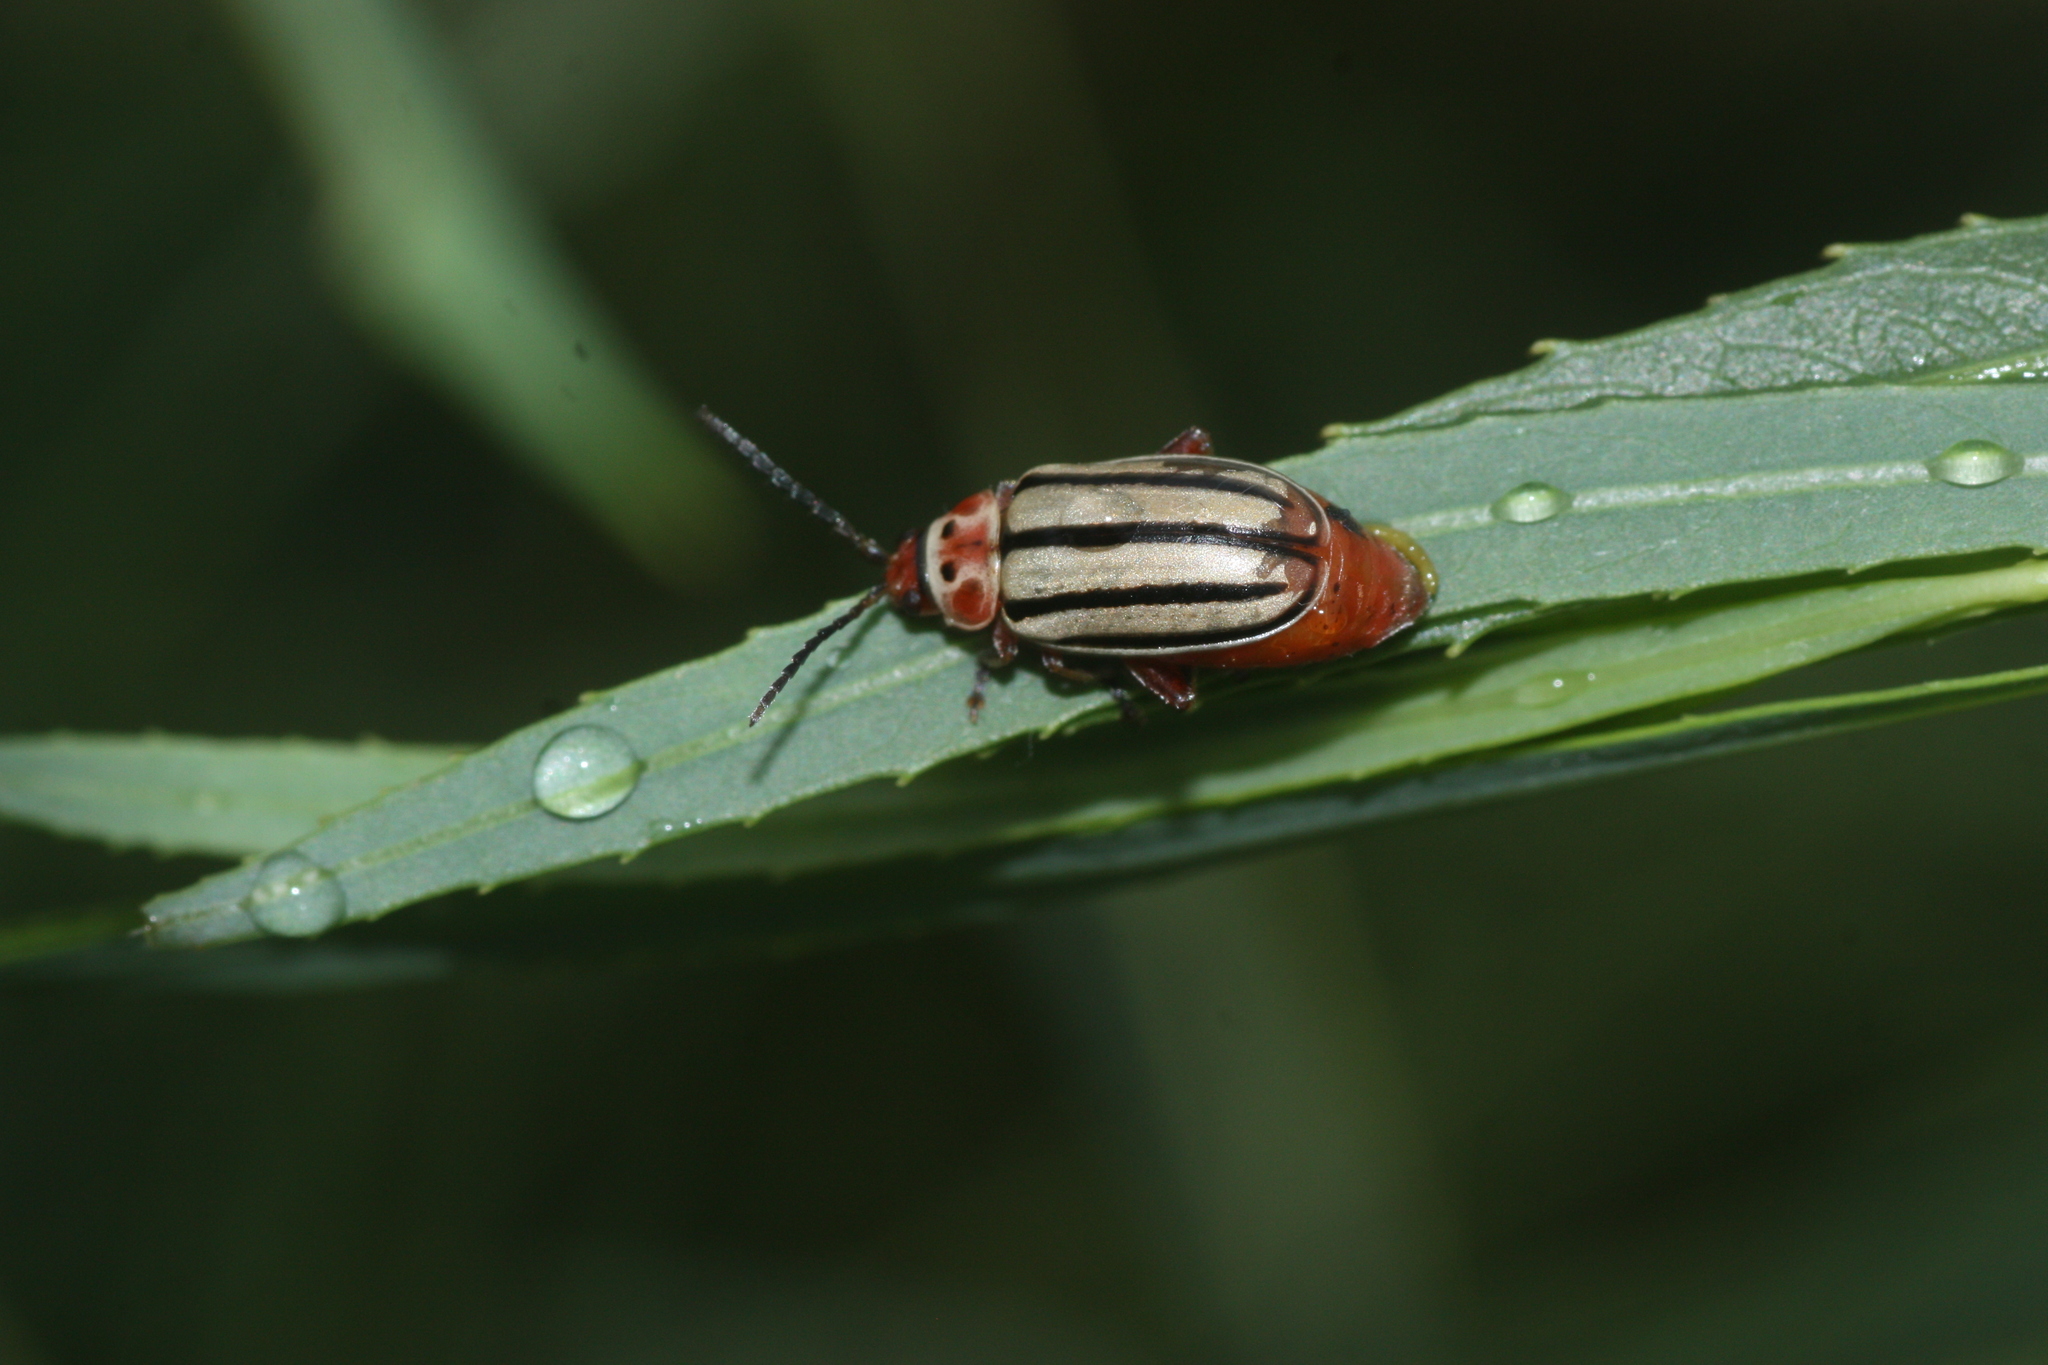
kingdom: Animalia
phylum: Arthropoda
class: Insecta
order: Coleoptera
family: Chrysomelidae
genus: Disonycha
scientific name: Disonycha alternata
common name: Striped willow leaf beetle
